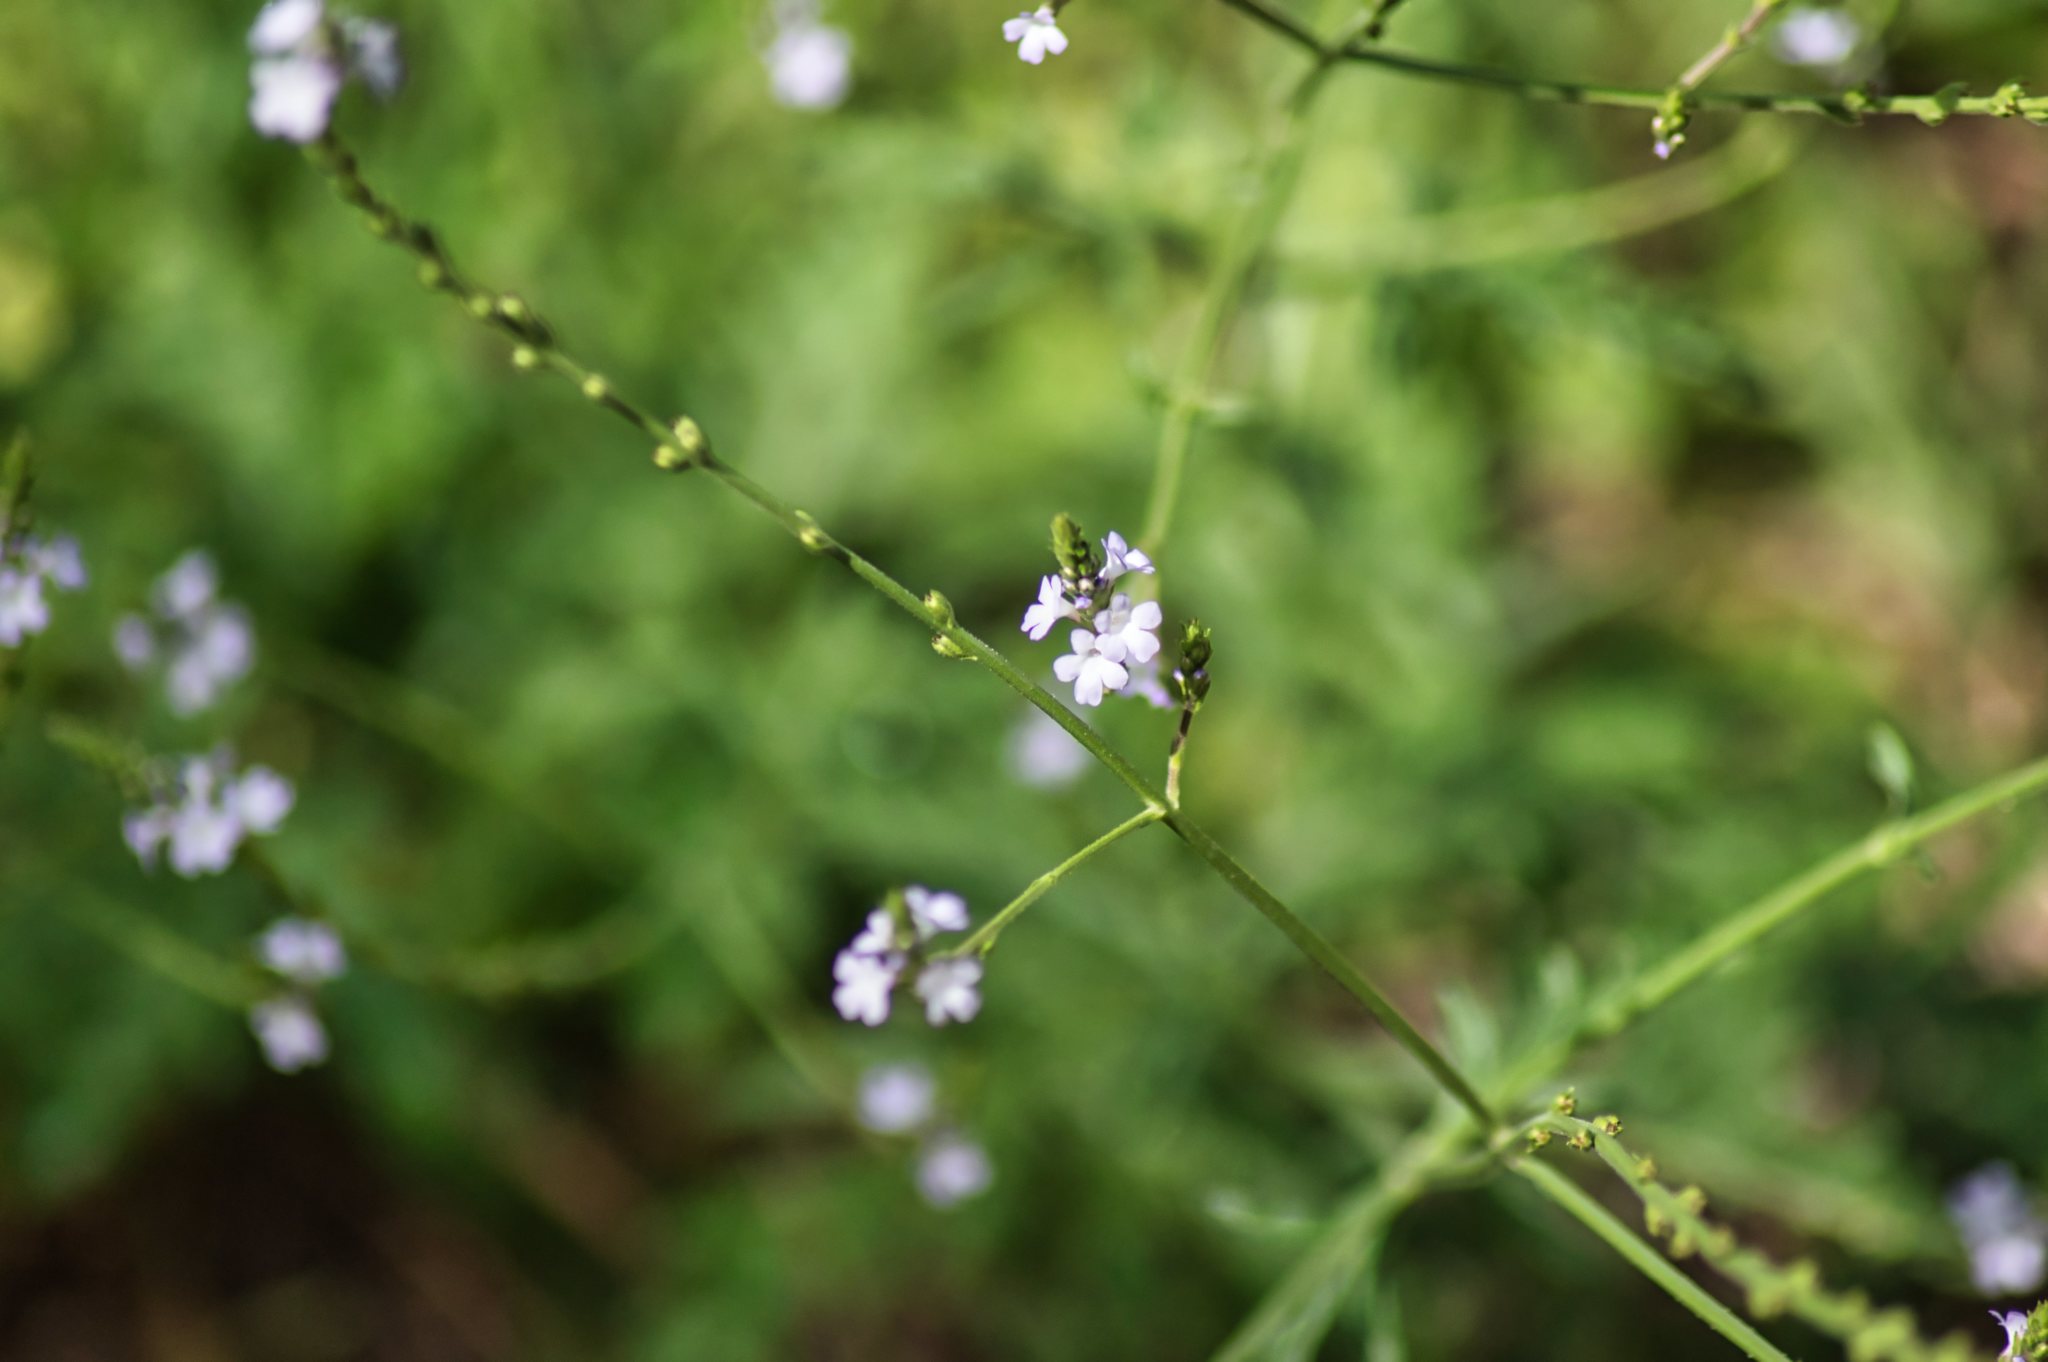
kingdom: Plantae
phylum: Tracheophyta
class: Magnoliopsida
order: Lamiales
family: Verbenaceae
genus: Verbena
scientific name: Verbena officinalis
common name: Vervain
